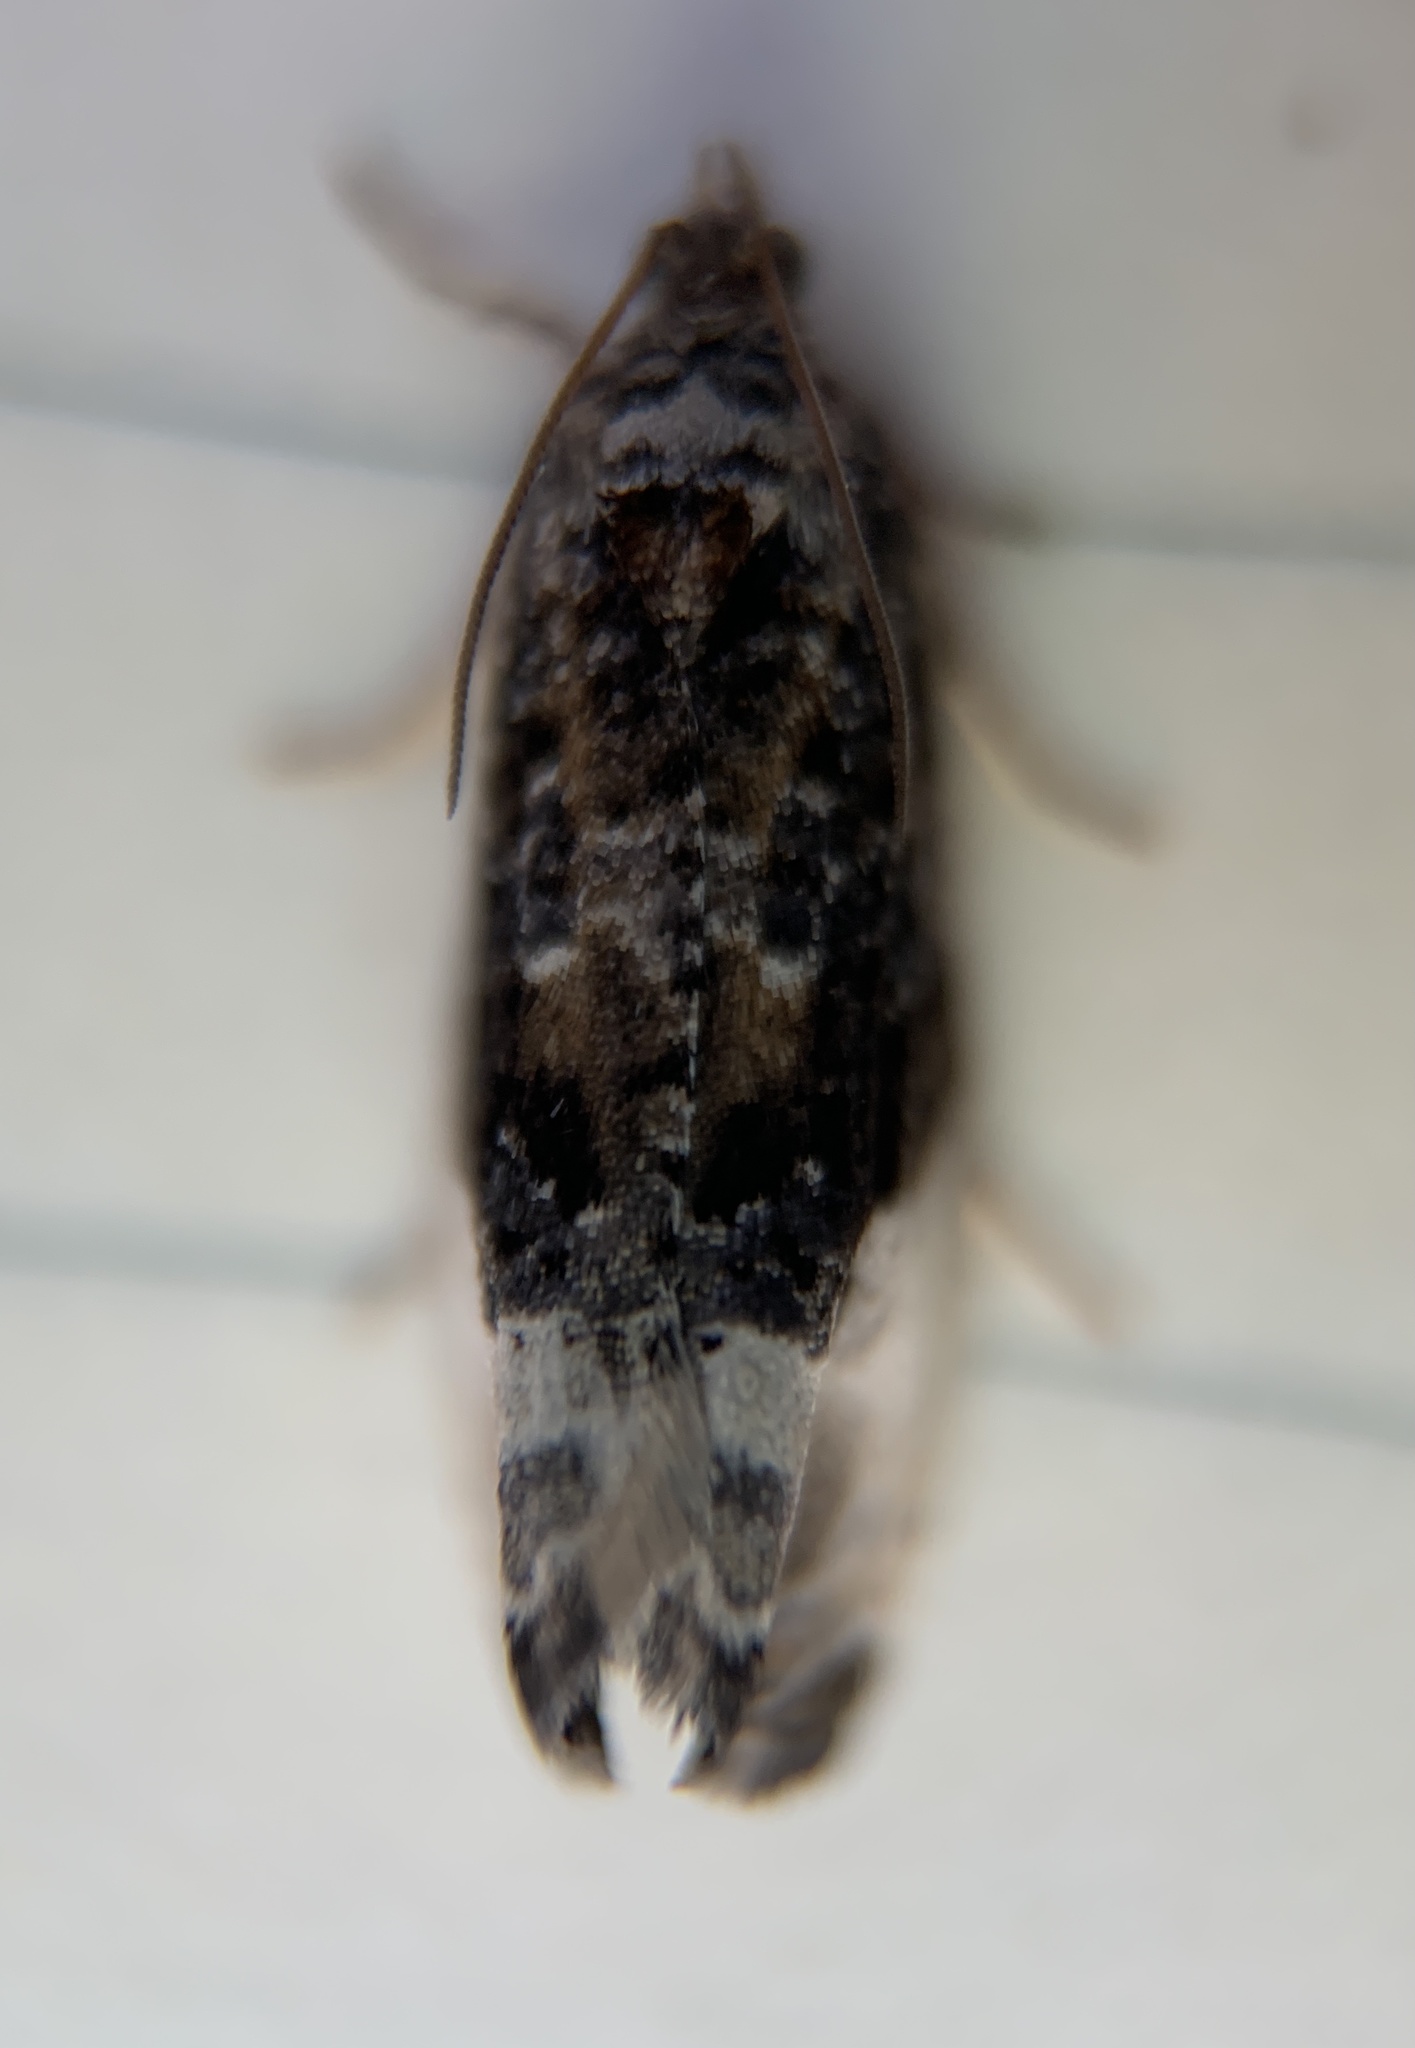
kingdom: Animalia
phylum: Arthropoda
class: Insecta
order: Lepidoptera
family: Tortricidae
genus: Hedya
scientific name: Hedya nubiferana
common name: Marbled orchard tortrix
